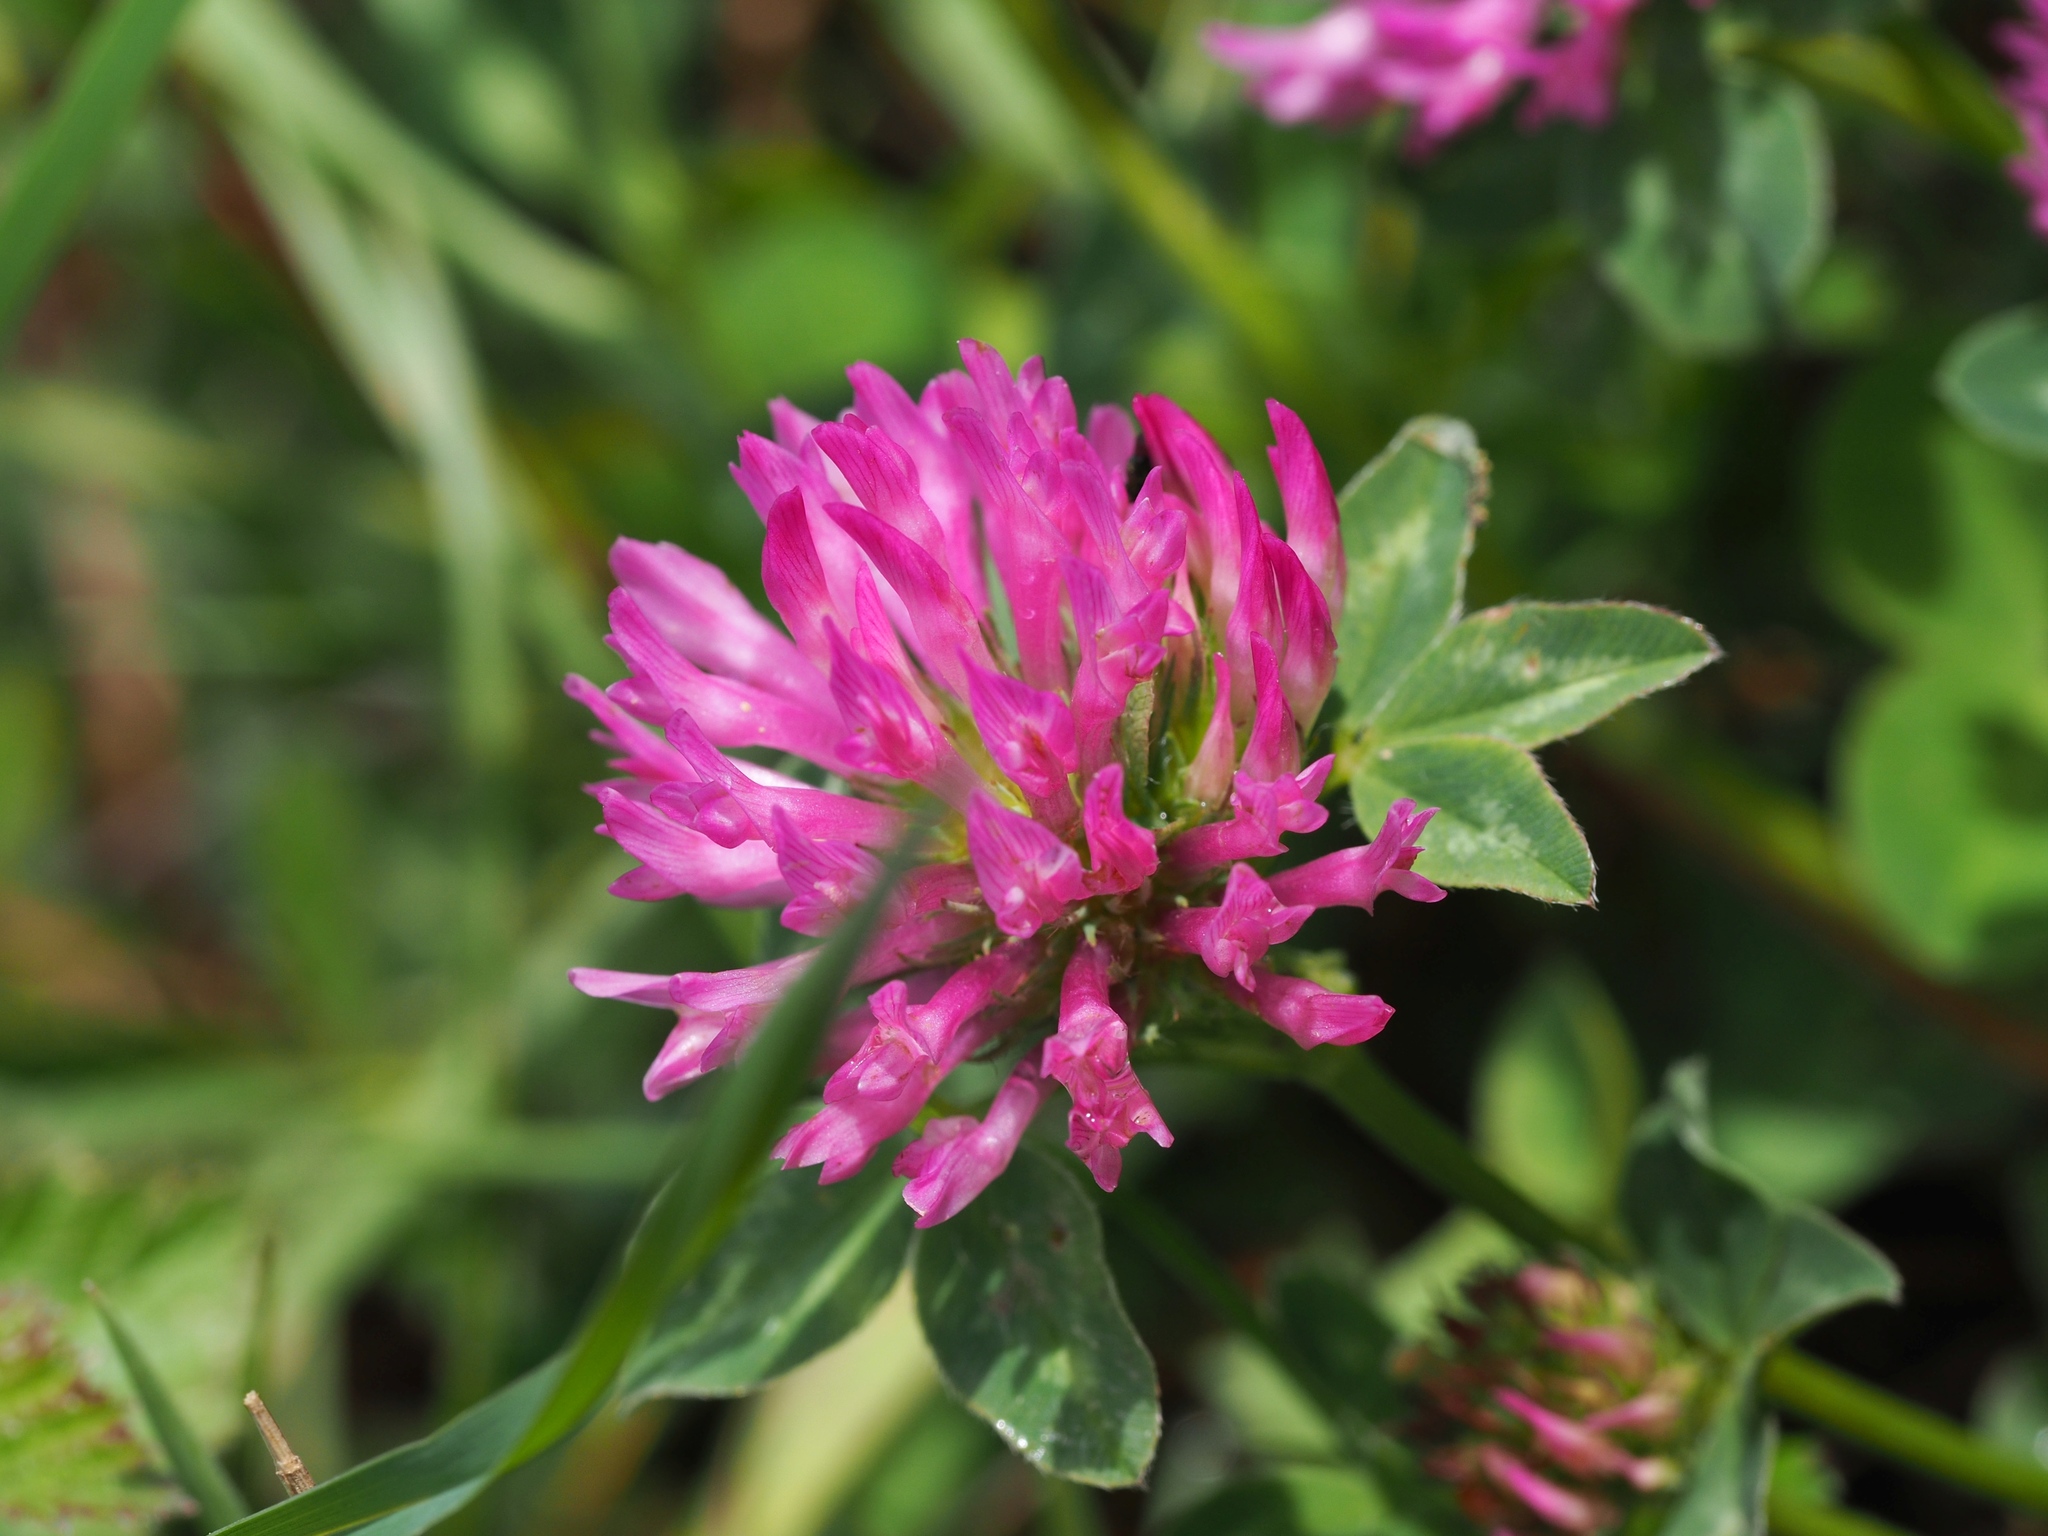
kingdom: Plantae
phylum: Tracheophyta
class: Magnoliopsida
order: Fabales
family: Fabaceae
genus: Trifolium
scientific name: Trifolium pratense
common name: Red clover
